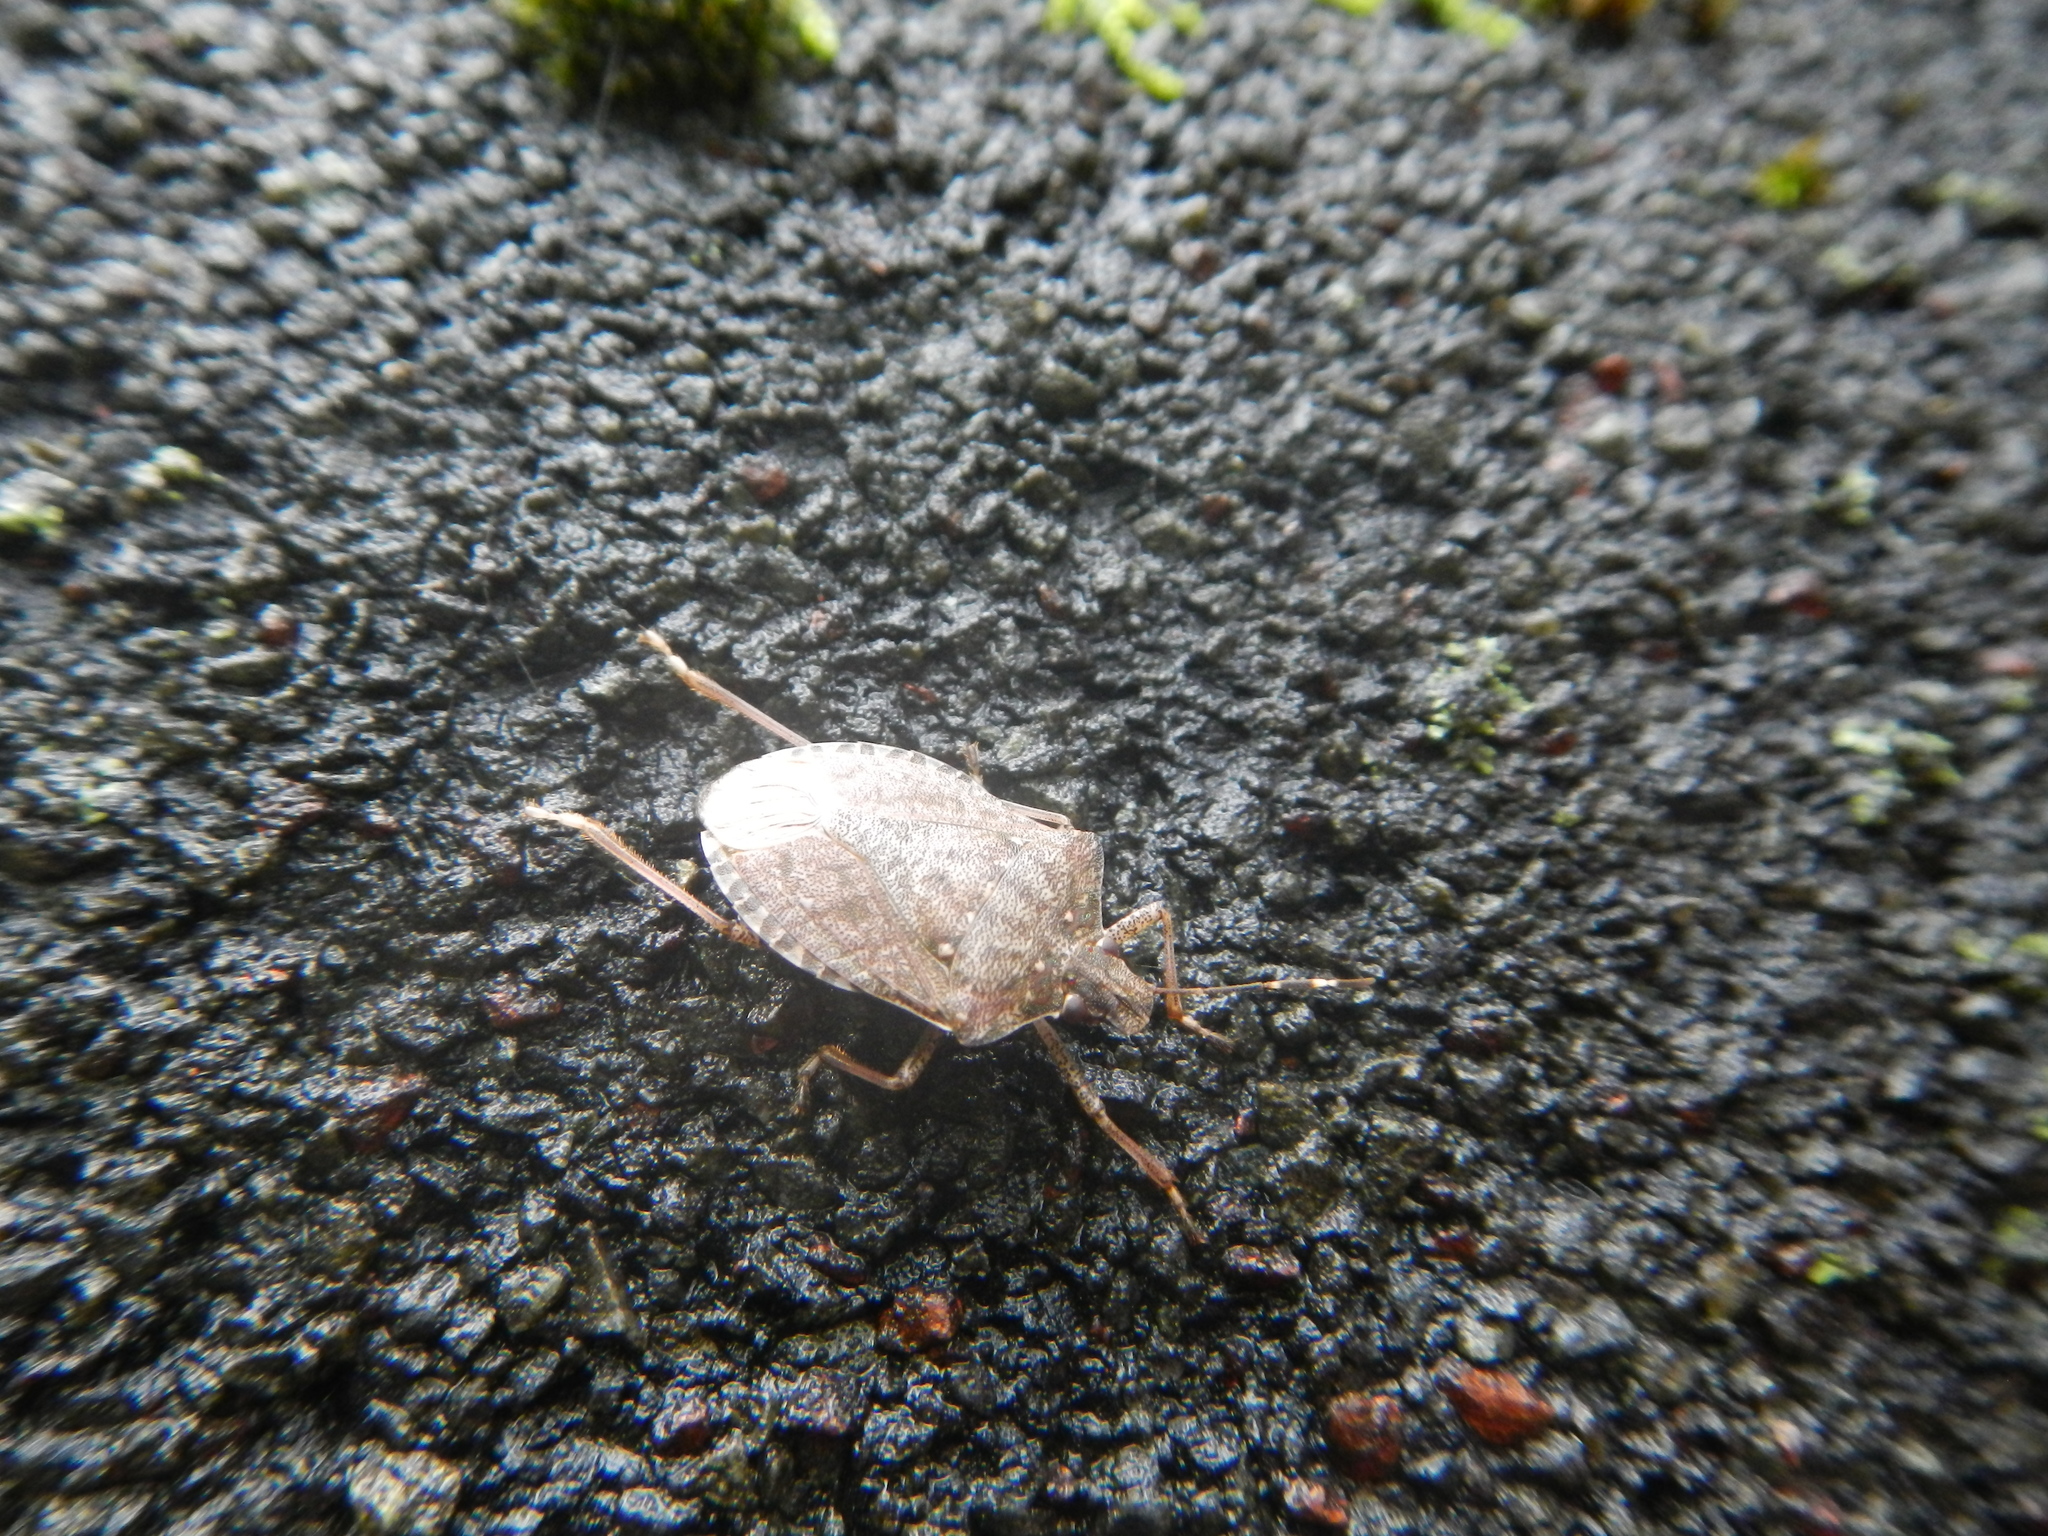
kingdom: Animalia
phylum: Arthropoda
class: Insecta
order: Hemiptera
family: Pentatomidae
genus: Halyomorpha
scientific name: Halyomorpha halys
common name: Brown marmorated stink bug
